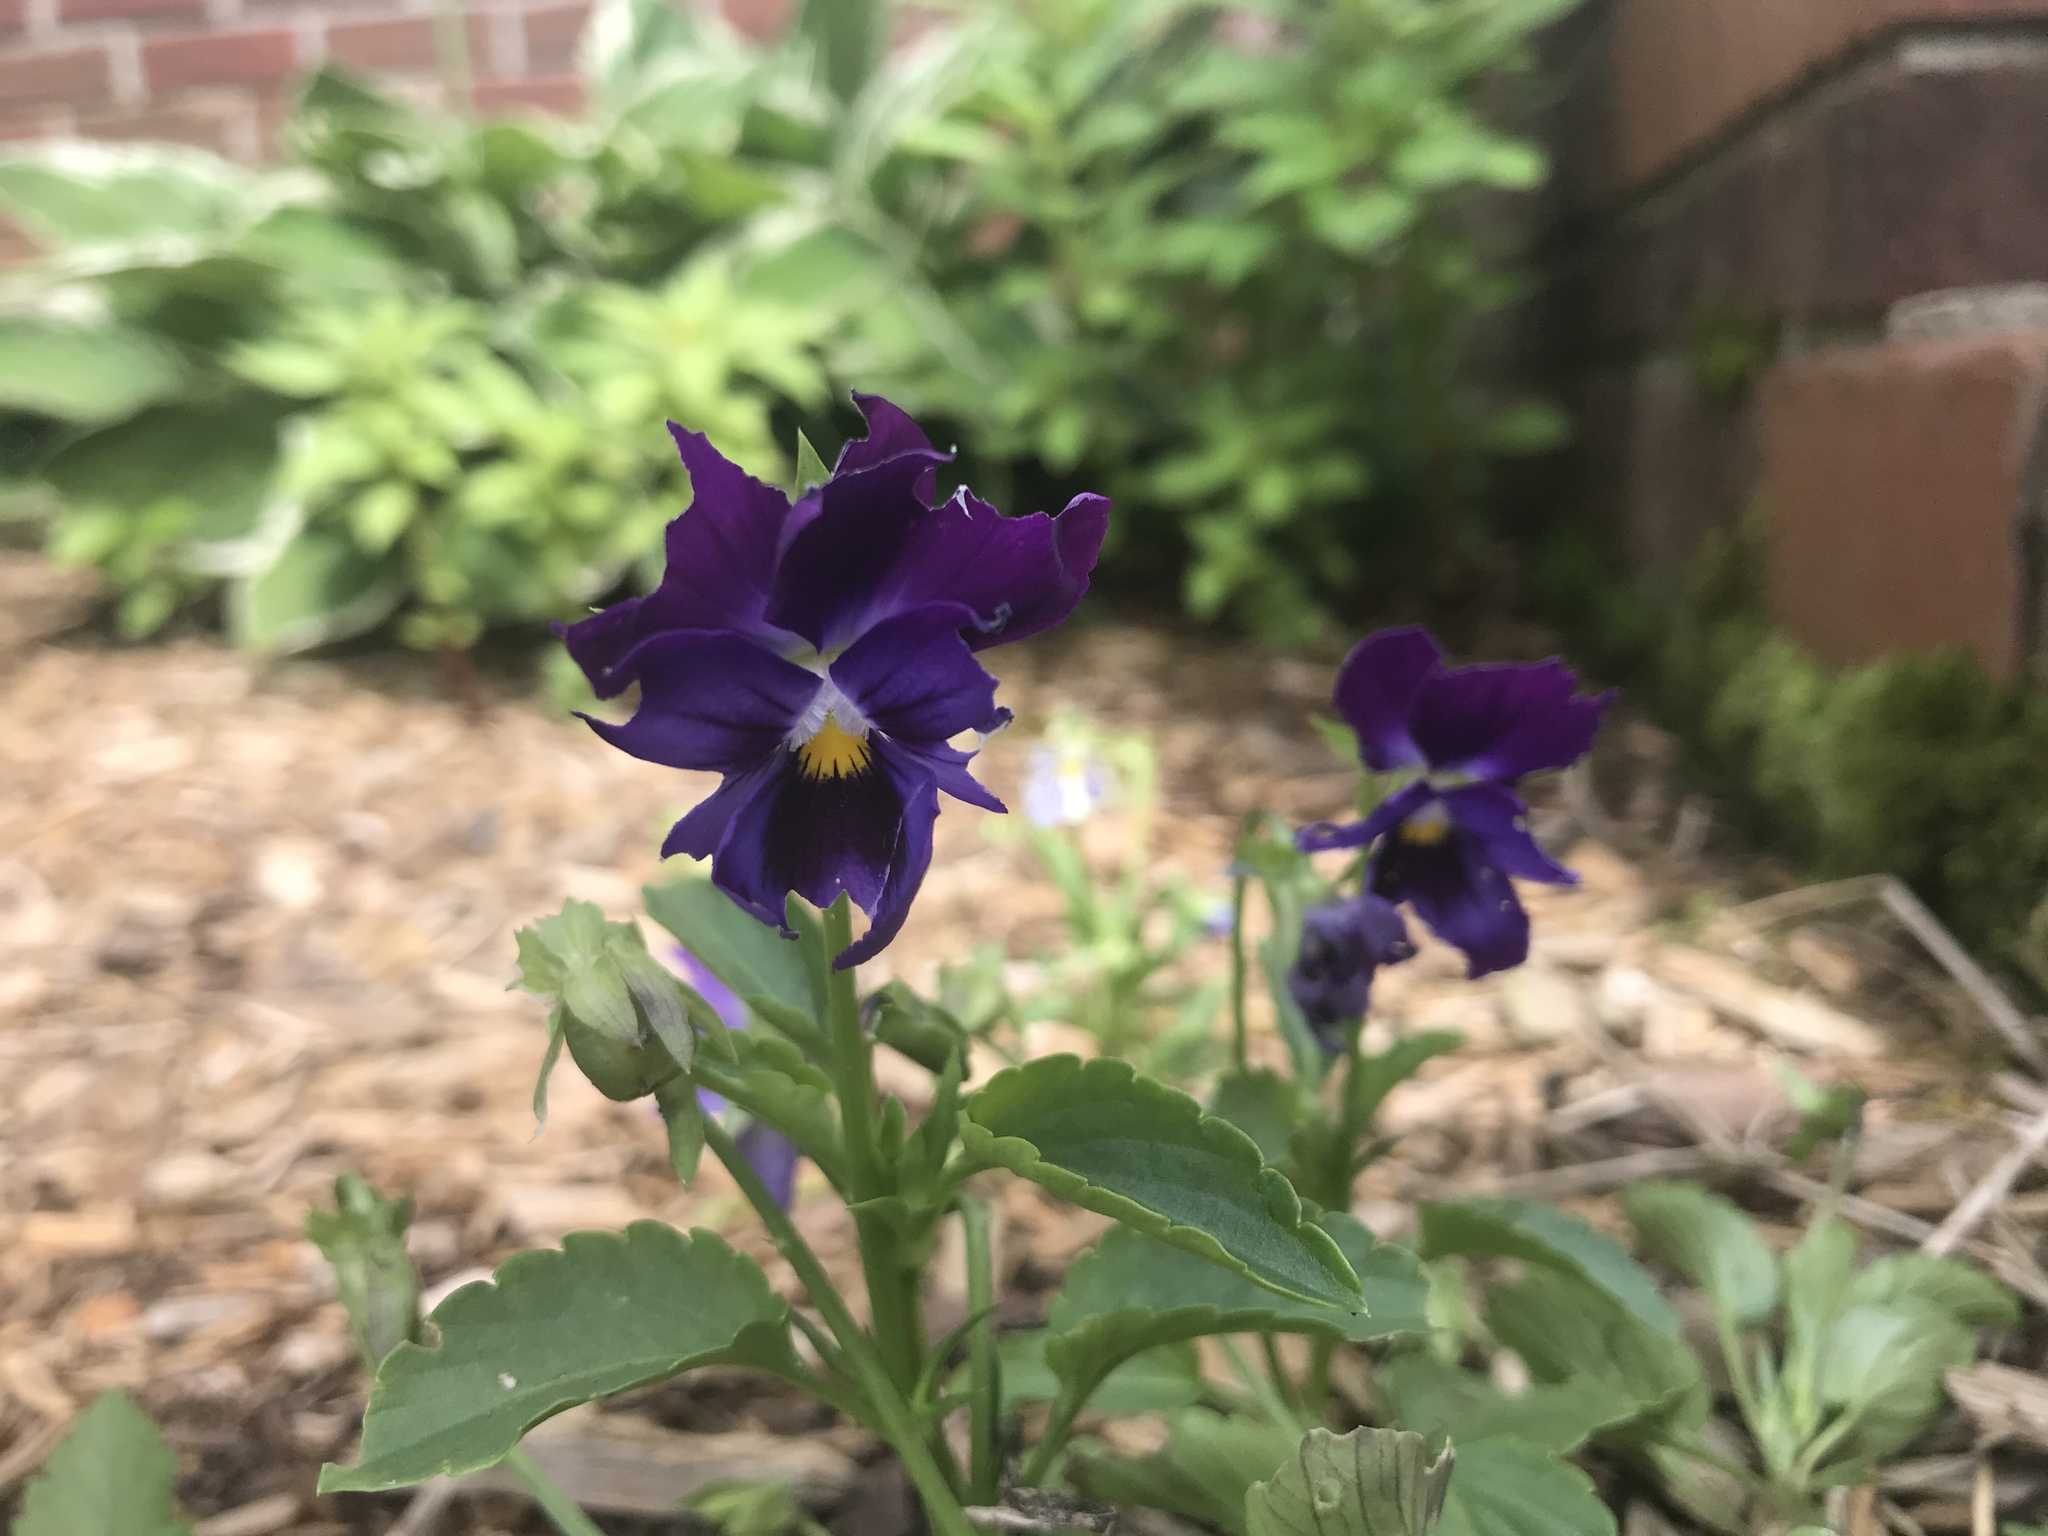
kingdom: Plantae
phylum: Tracheophyta
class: Magnoliopsida
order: Malpighiales
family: Violaceae
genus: Viola
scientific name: Viola wittrockiana
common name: Garden pansy
